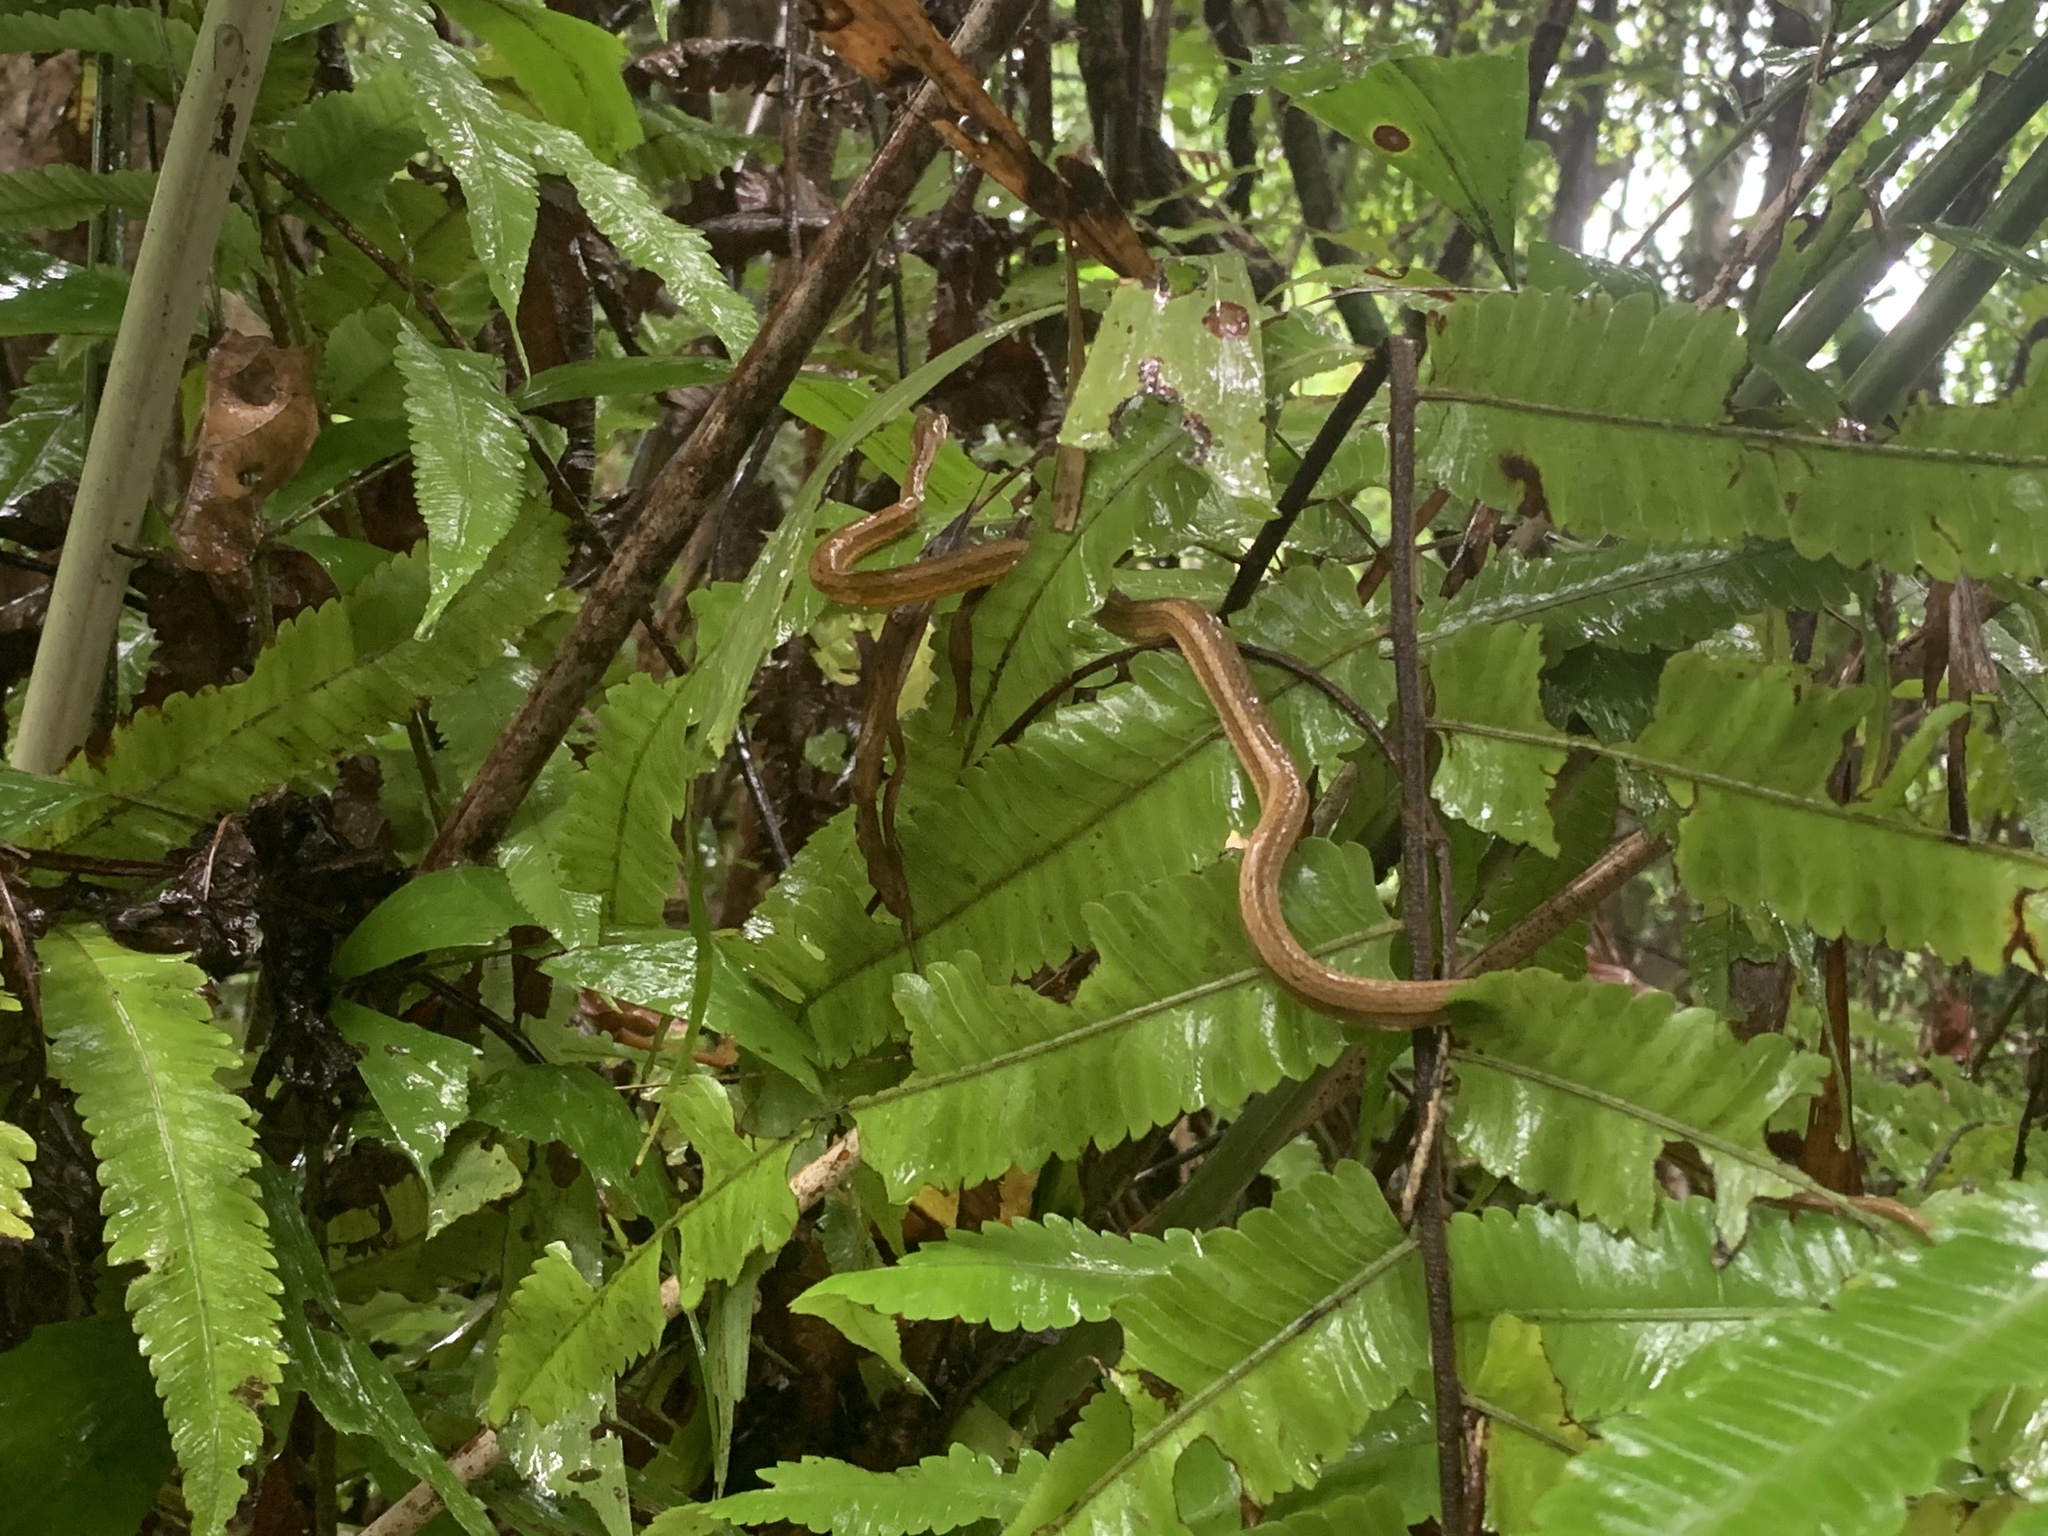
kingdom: Animalia
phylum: Chordata
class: Squamata
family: Pseudaspididae
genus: Psammodynastes
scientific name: Psammodynastes pulverulentus
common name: Common mock viper
